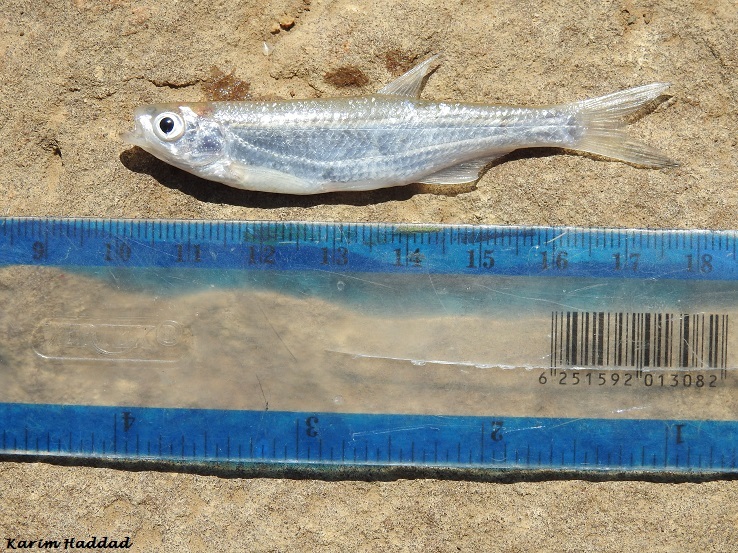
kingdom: Animalia
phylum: Chordata
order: Cypriniformes
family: Cyprinidae
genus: Alburnus
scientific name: Alburnus alburnus
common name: Bleak
